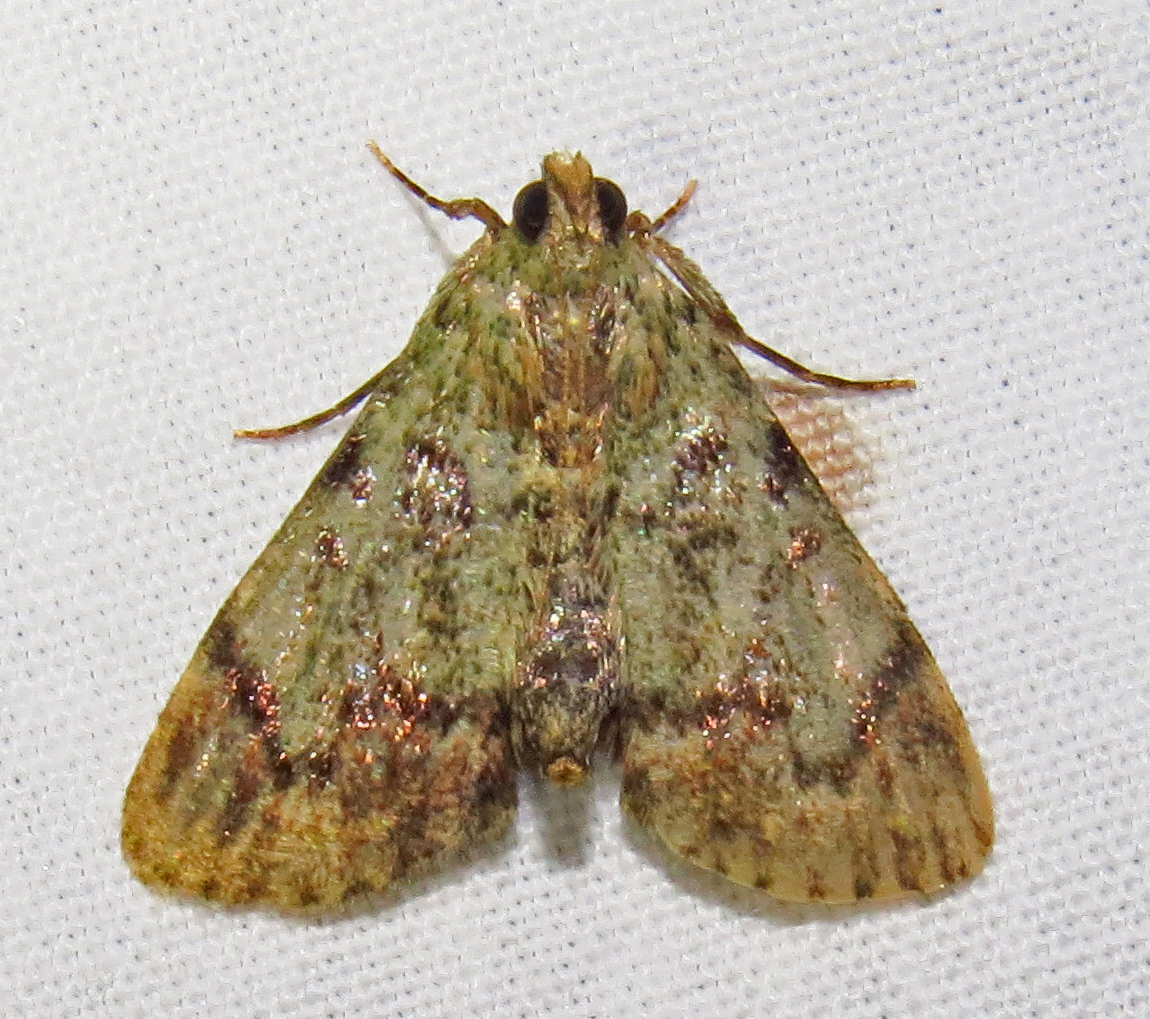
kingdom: Animalia
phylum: Arthropoda
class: Insecta
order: Lepidoptera
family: Pyralidae
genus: Epipaschia
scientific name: Epipaschia superatalis
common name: Dimorphic macalla moth
